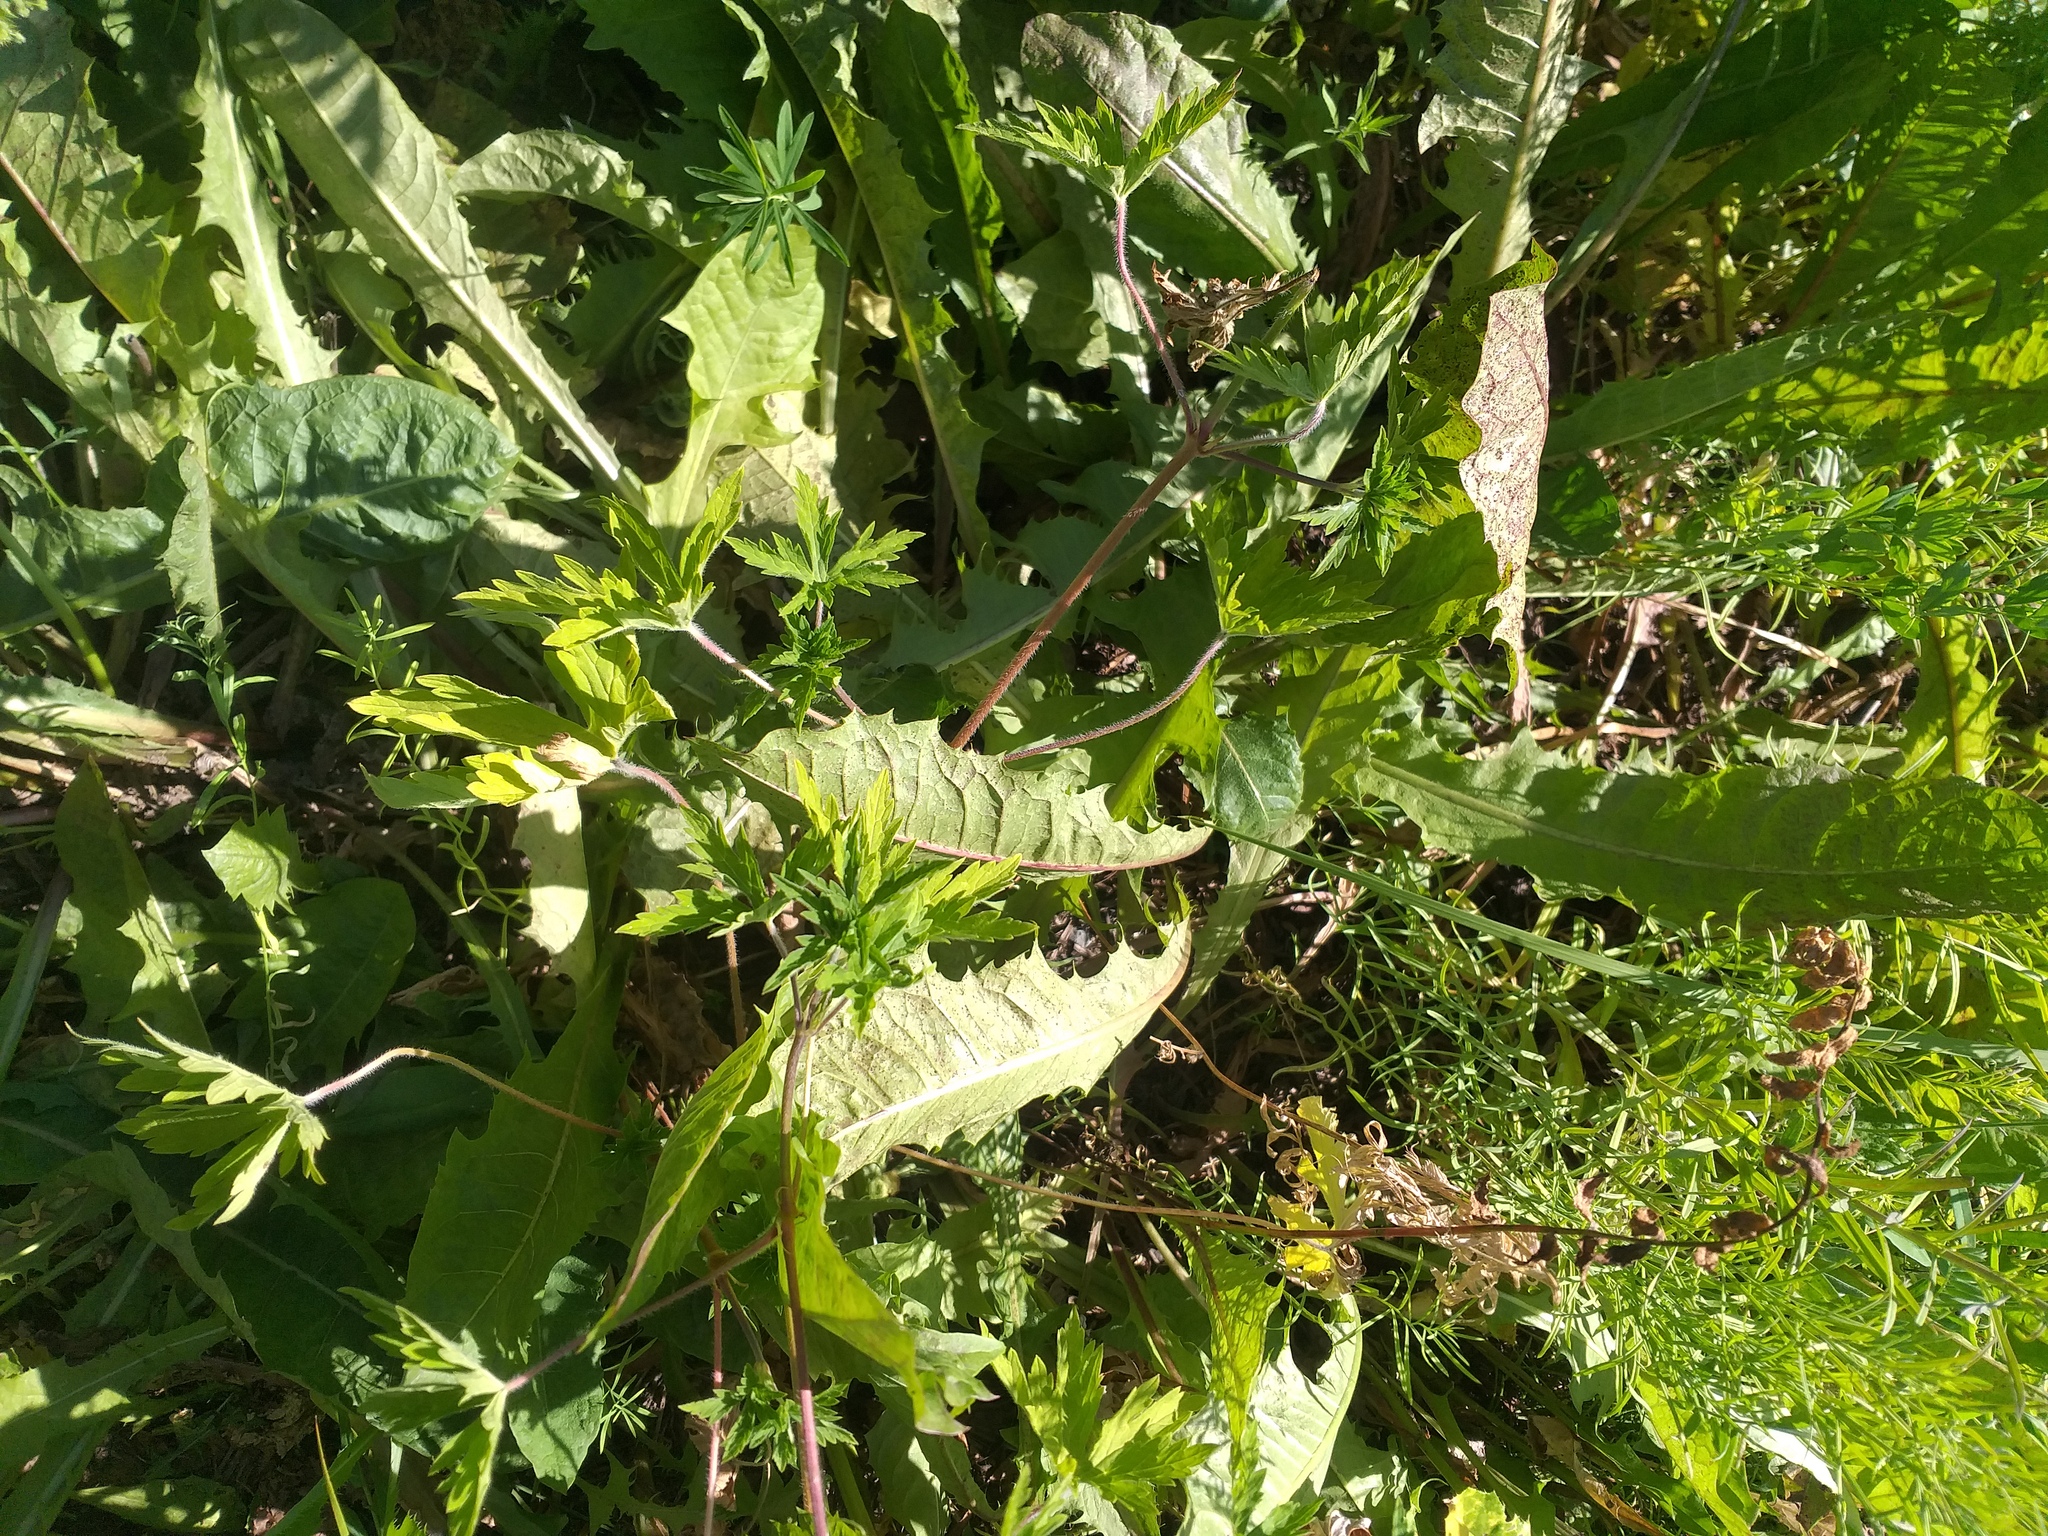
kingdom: Plantae
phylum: Tracheophyta
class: Magnoliopsida
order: Asterales
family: Asteraceae
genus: Taraxacum
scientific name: Taraxacum officinale
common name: Common dandelion
